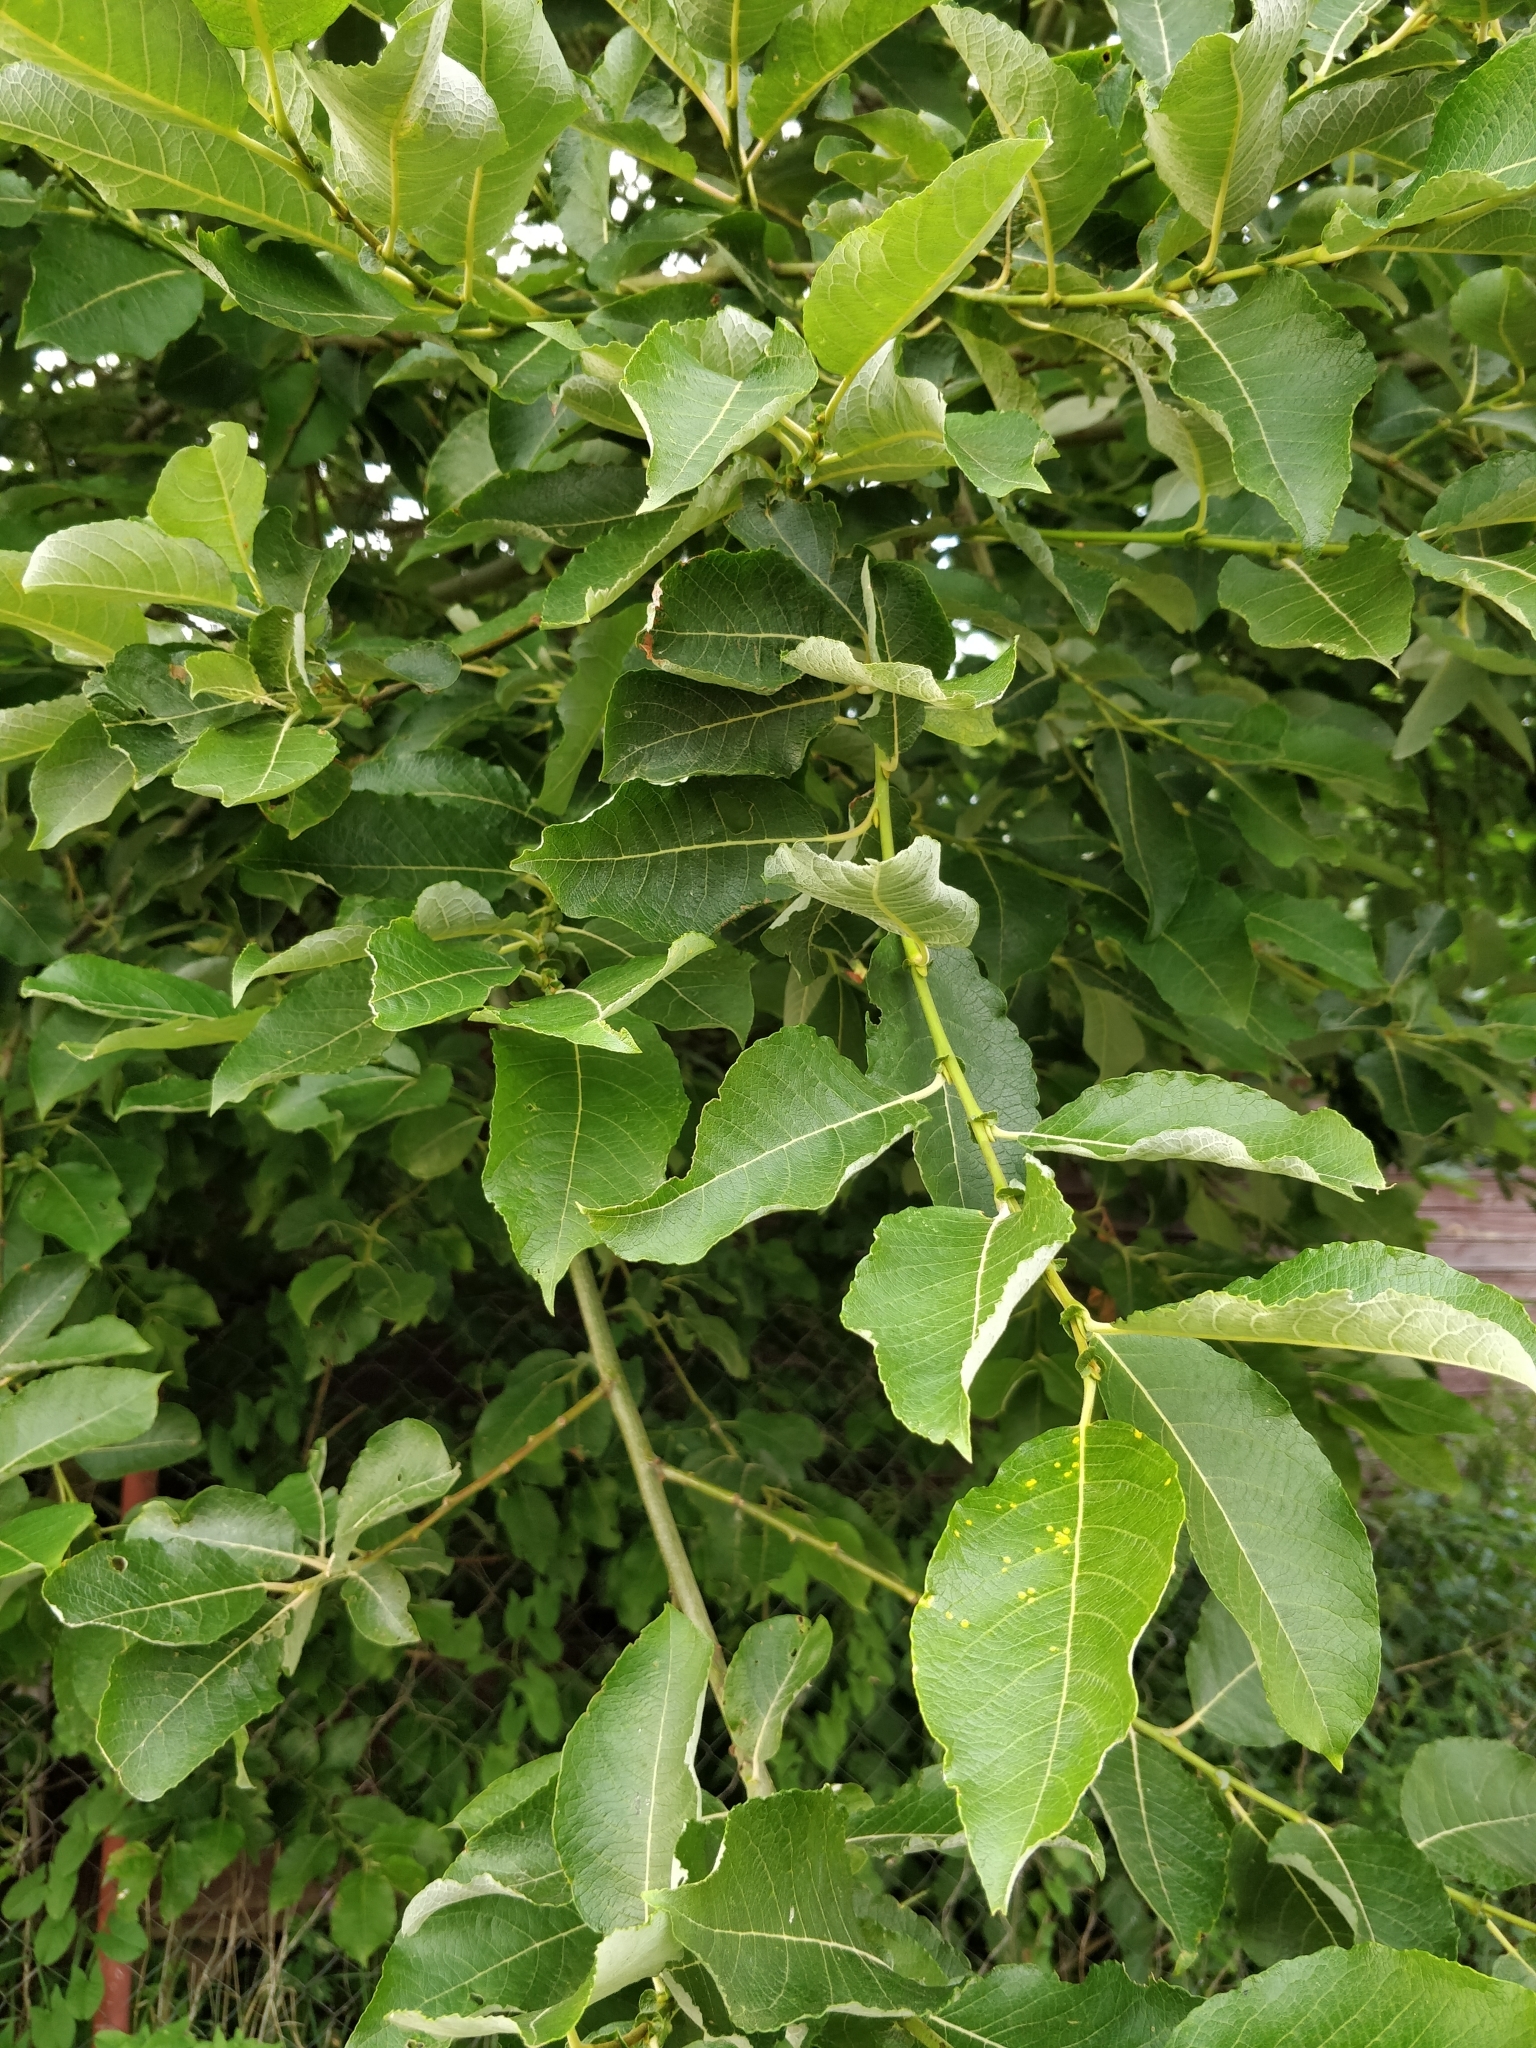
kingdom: Plantae
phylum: Tracheophyta
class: Magnoliopsida
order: Malpighiales
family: Salicaceae
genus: Salix
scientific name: Salix caprea
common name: Goat willow
